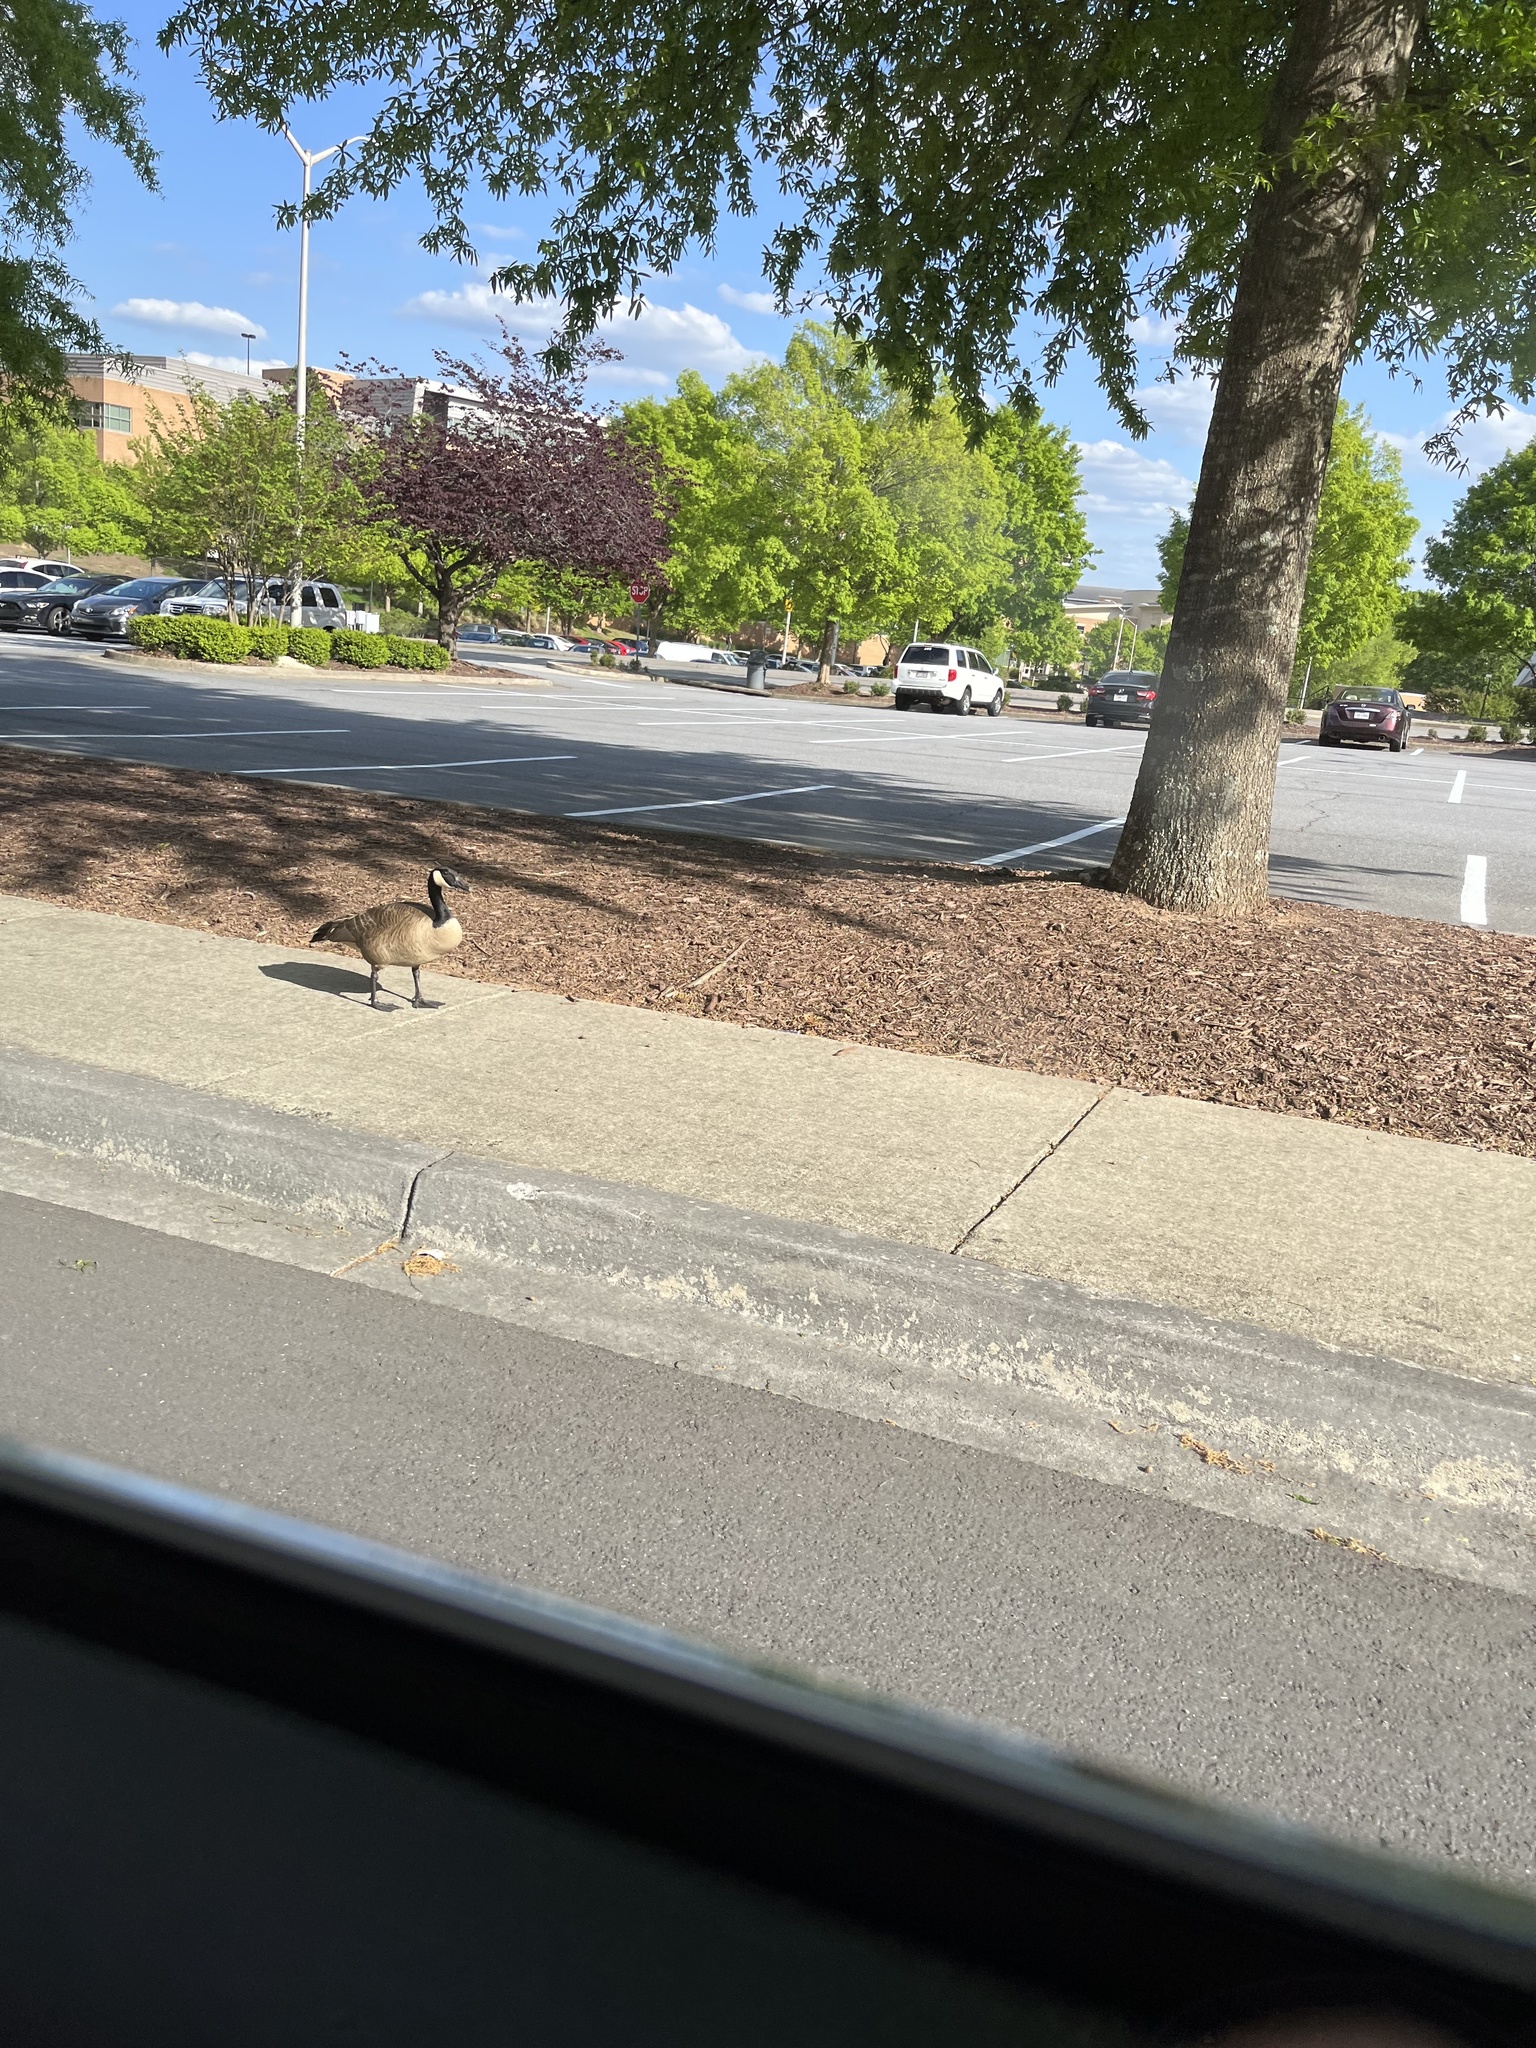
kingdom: Animalia
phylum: Chordata
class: Aves
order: Anseriformes
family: Anatidae
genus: Branta
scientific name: Branta canadensis
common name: Canada goose
